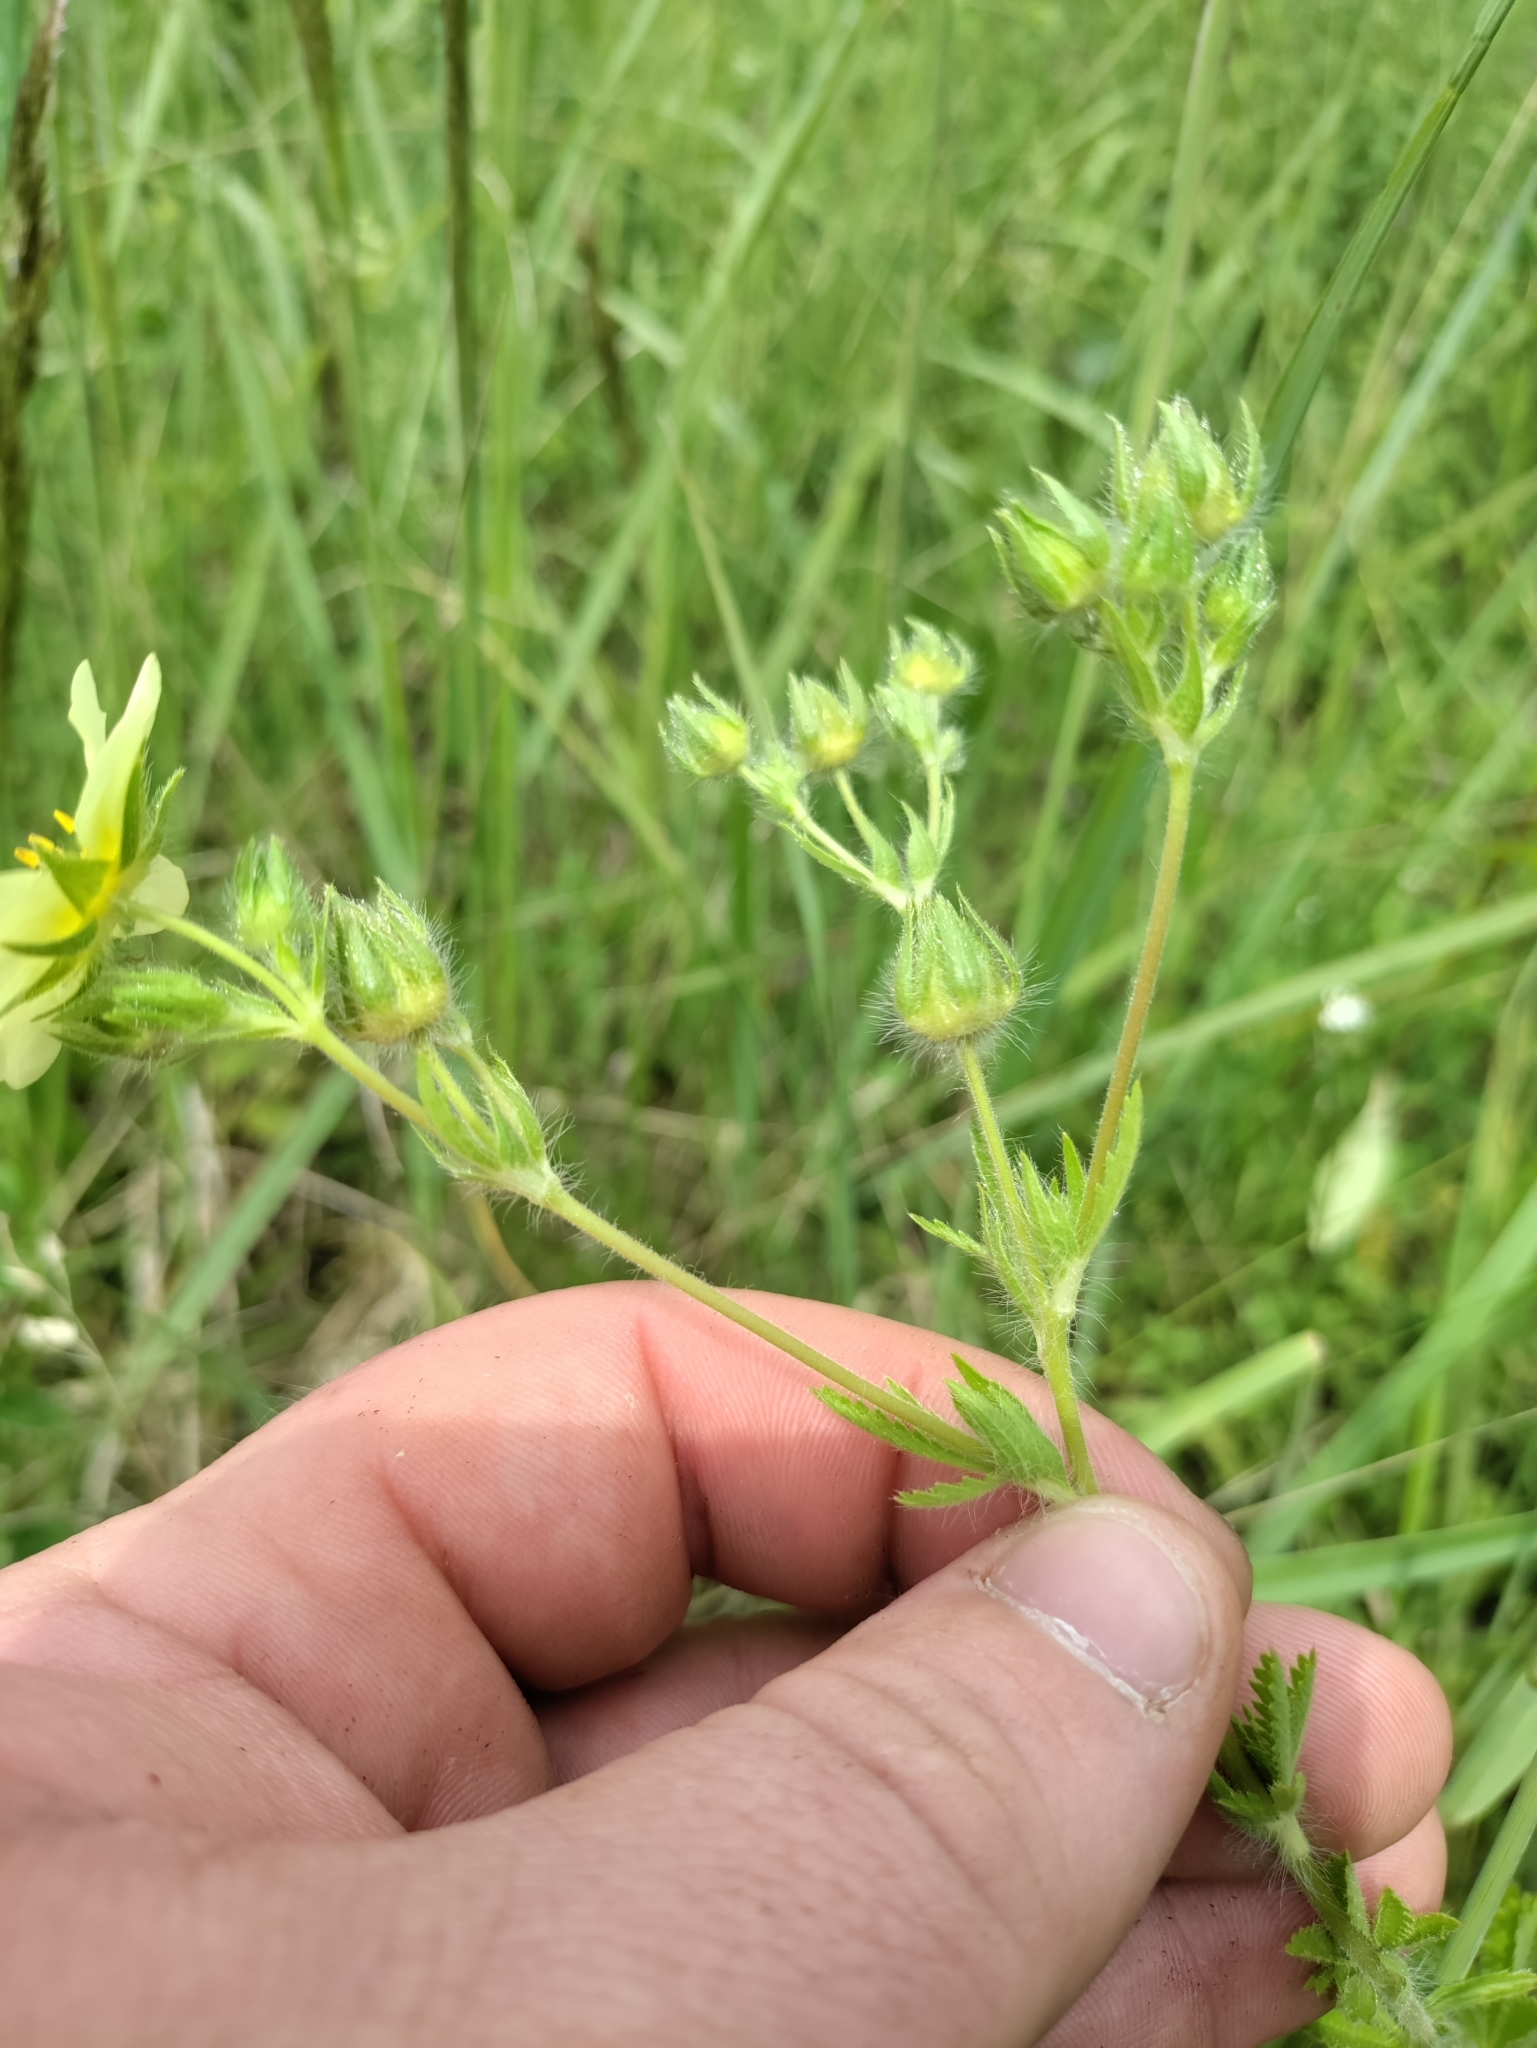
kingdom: Plantae
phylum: Tracheophyta
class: Magnoliopsida
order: Rosales
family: Rosaceae
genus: Potentilla
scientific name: Potentilla recta
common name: Sulphur cinquefoil
